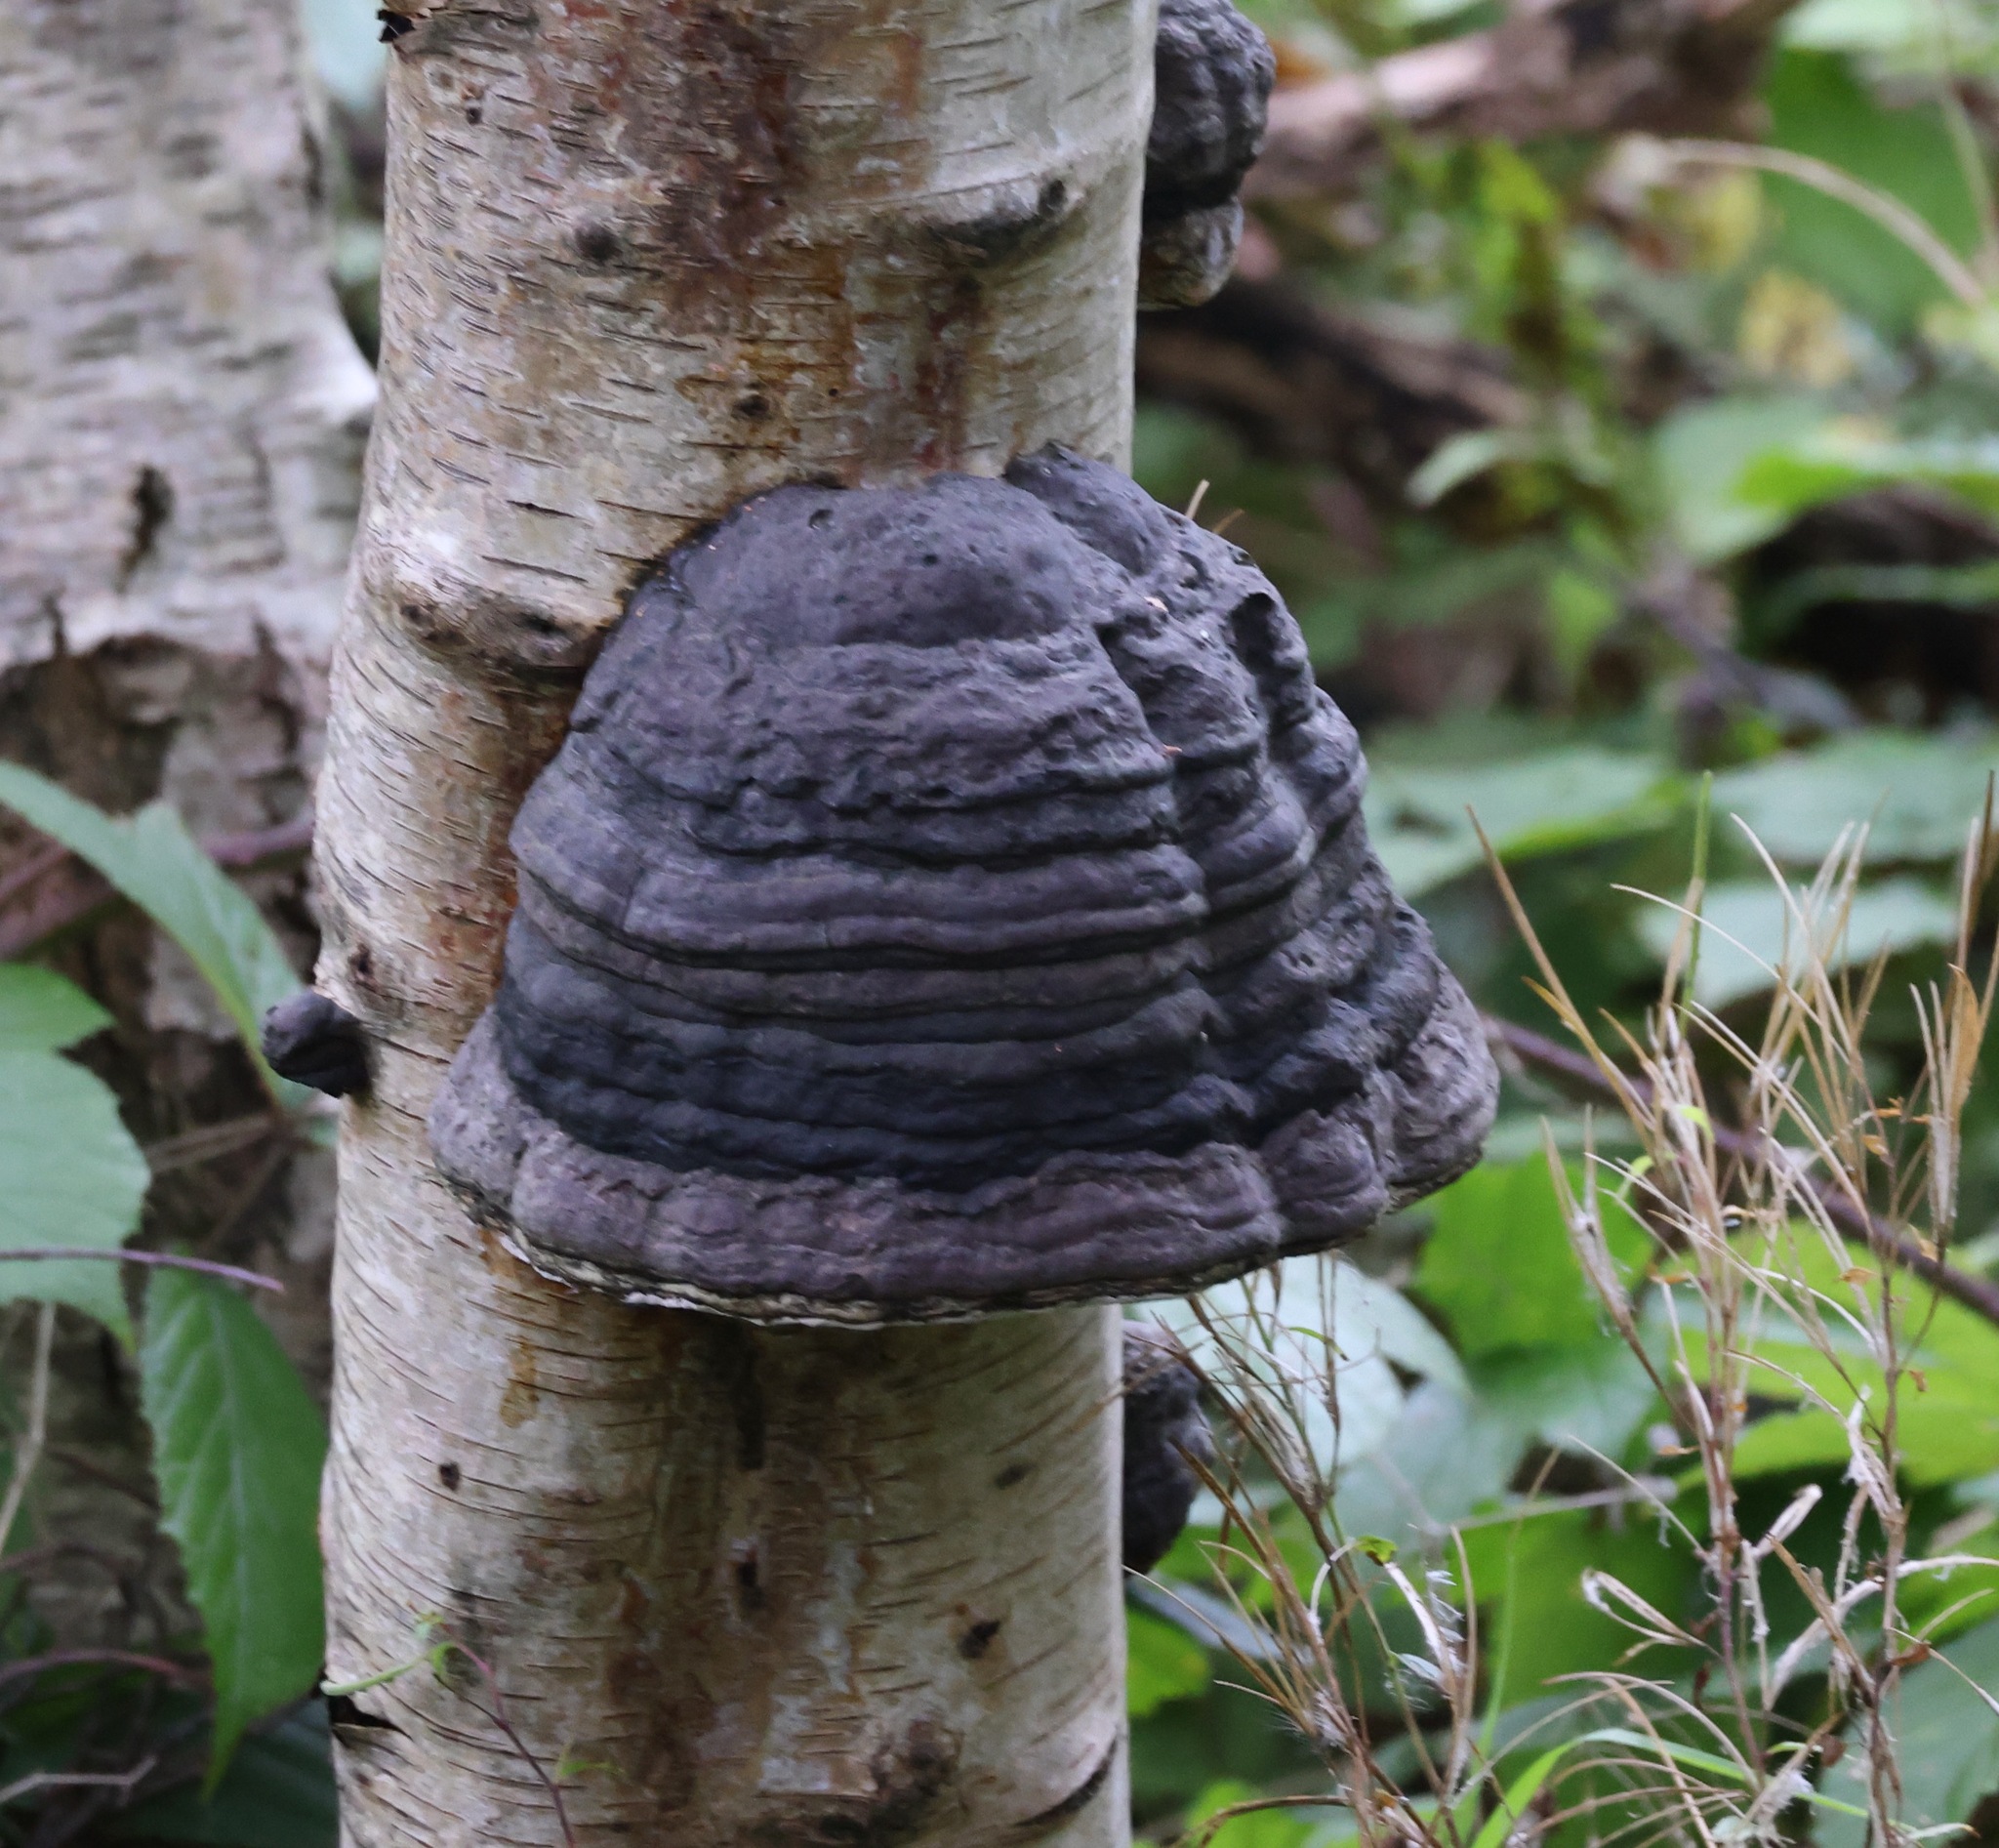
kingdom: Fungi
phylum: Basidiomycota
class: Agaricomycetes
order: Polyporales
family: Polyporaceae
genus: Fomes
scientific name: Fomes fomentarius
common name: Hoof fungus
